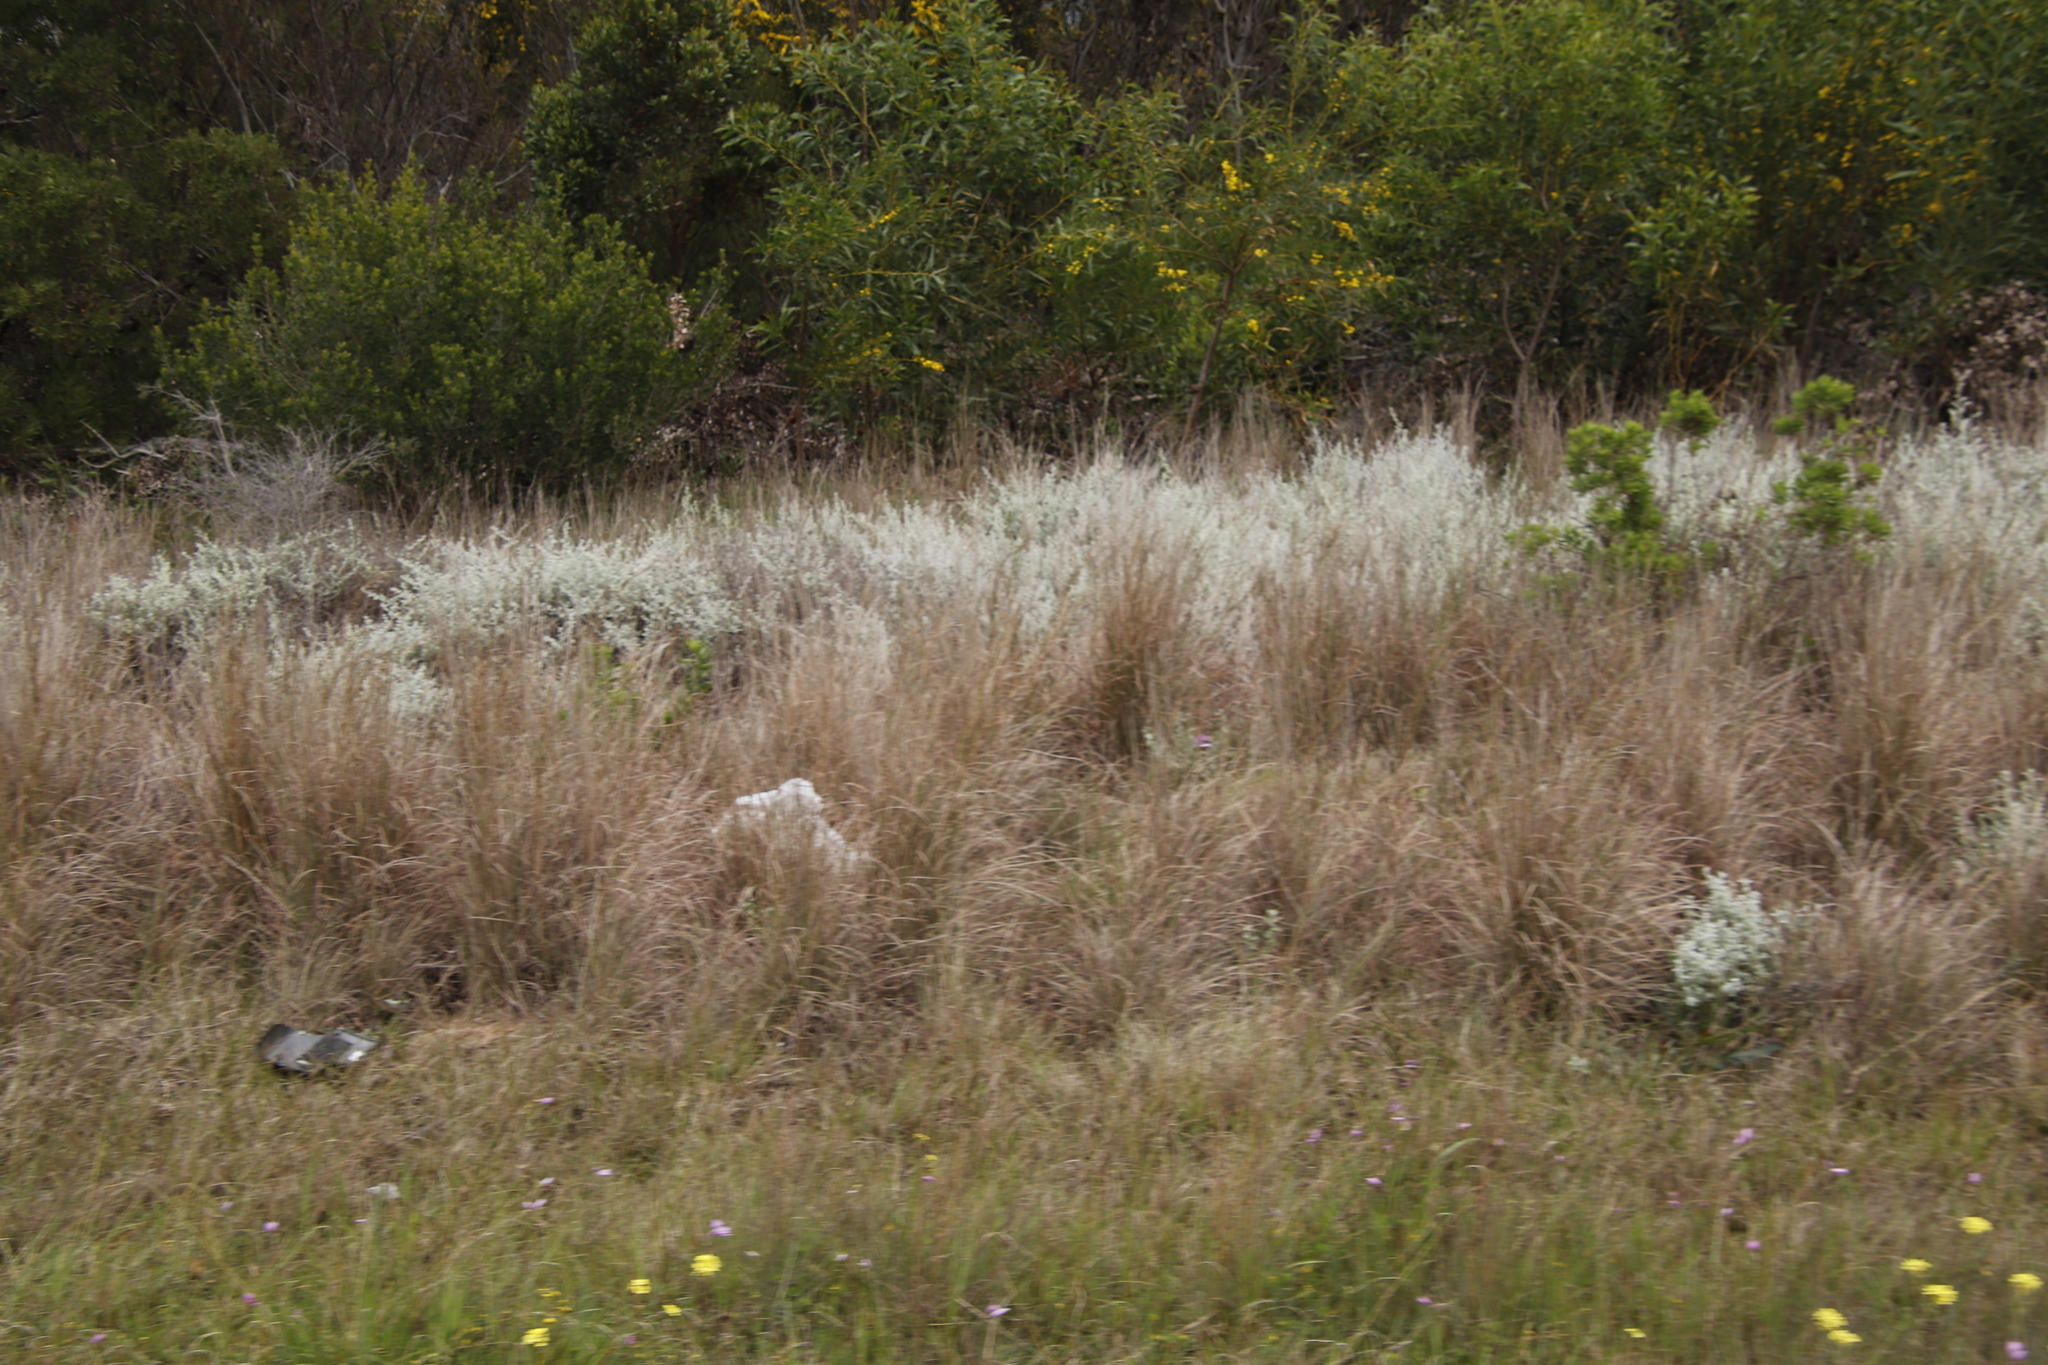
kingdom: Plantae
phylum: Tracheophyta
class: Magnoliopsida
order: Asterales
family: Asteraceae
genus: Seriphium
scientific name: Seriphium plumosum
